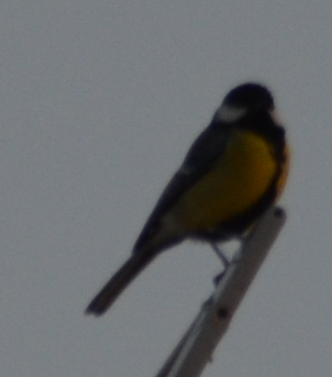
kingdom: Animalia
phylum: Chordata
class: Aves
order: Passeriformes
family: Paridae
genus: Parus
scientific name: Parus major
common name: Great tit
